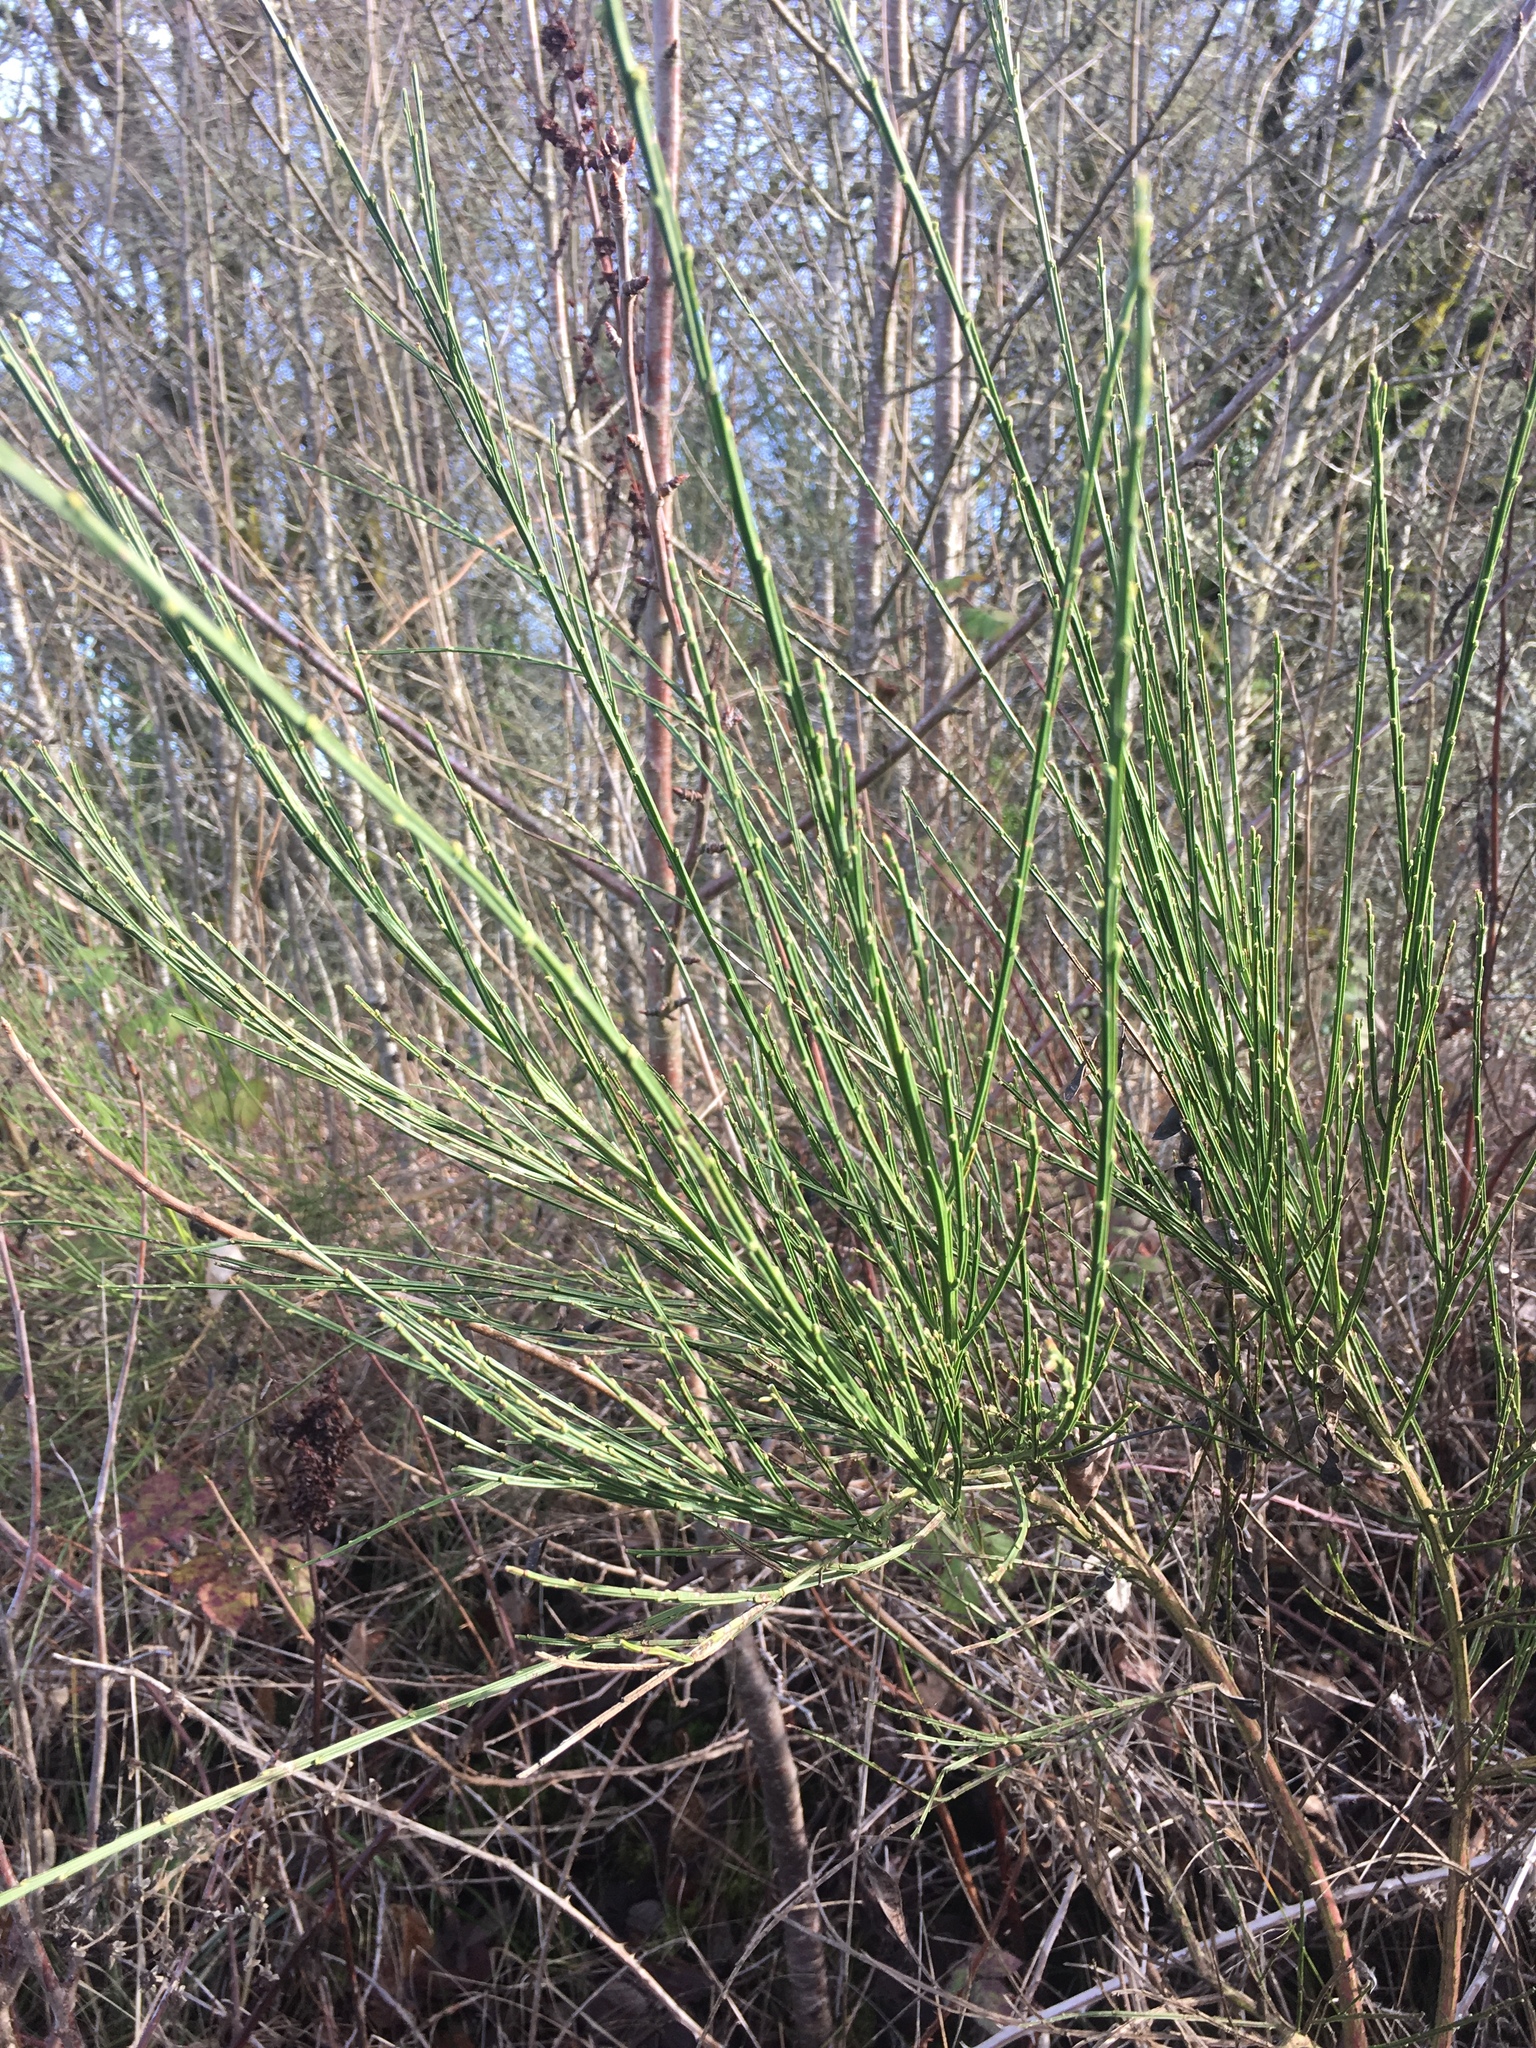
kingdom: Plantae
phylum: Tracheophyta
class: Magnoliopsida
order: Fabales
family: Fabaceae
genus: Cytisus
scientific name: Cytisus scoparius
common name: Scotch broom
